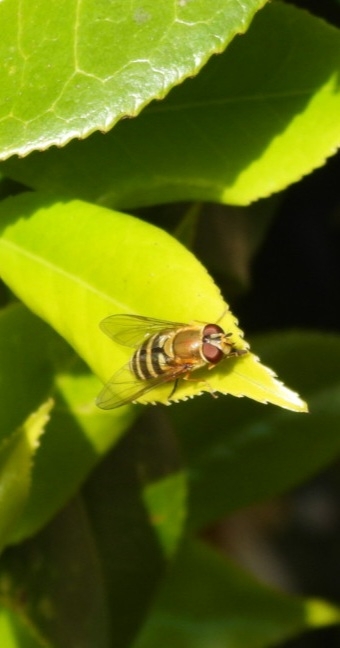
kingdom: Animalia
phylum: Arthropoda
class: Insecta
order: Diptera
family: Syrphidae
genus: Syrphus
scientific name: Syrphus
